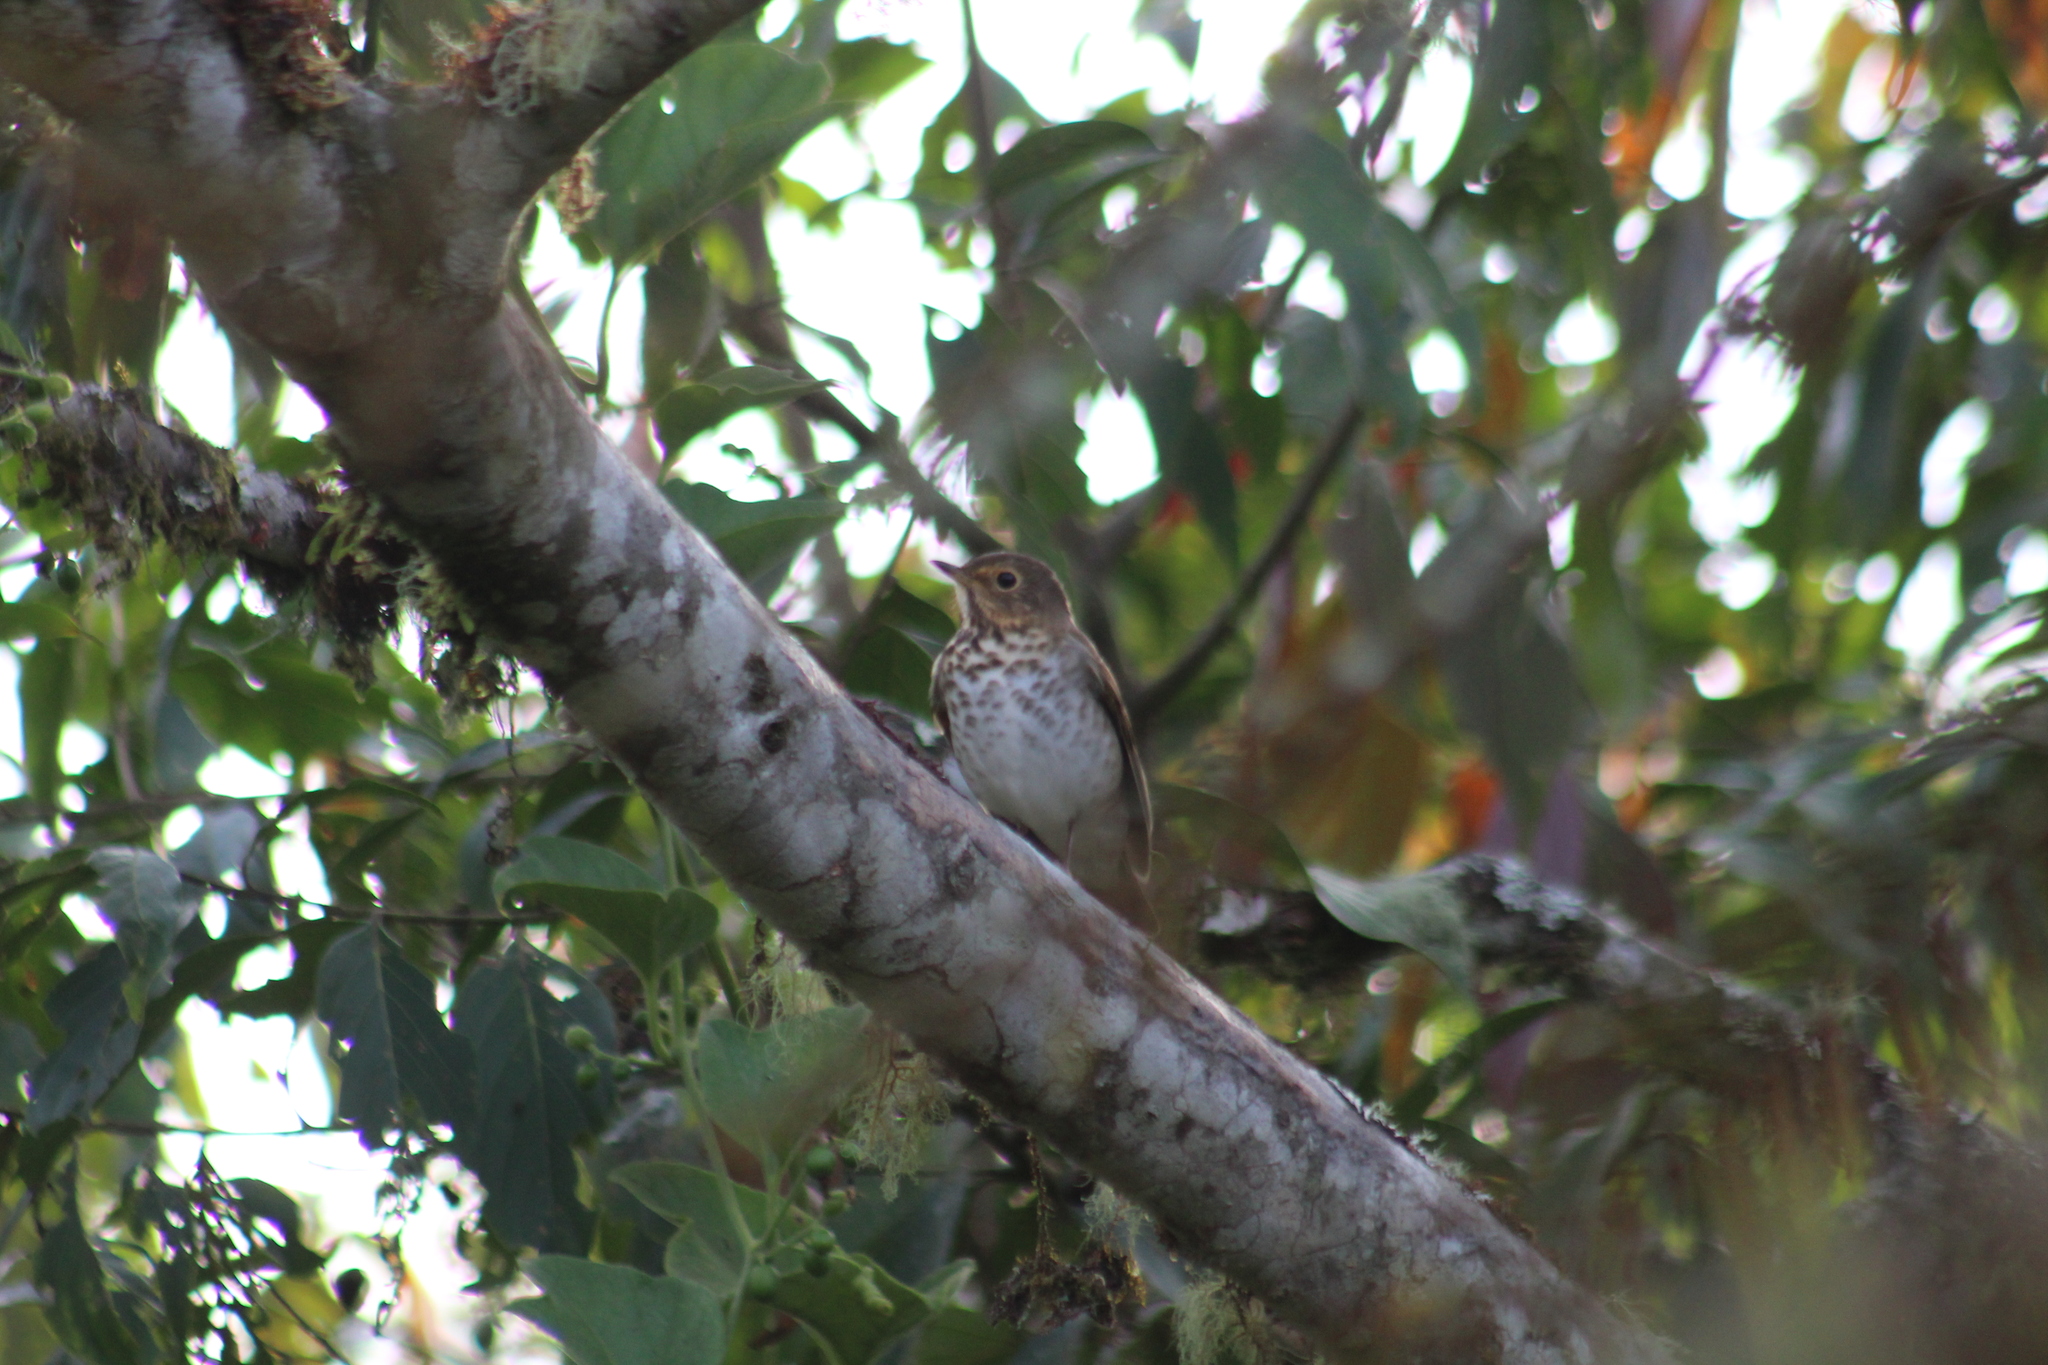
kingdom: Animalia
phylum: Chordata
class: Aves
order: Passeriformes
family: Turdidae
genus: Catharus
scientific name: Catharus ustulatus
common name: Swainson's thrush
